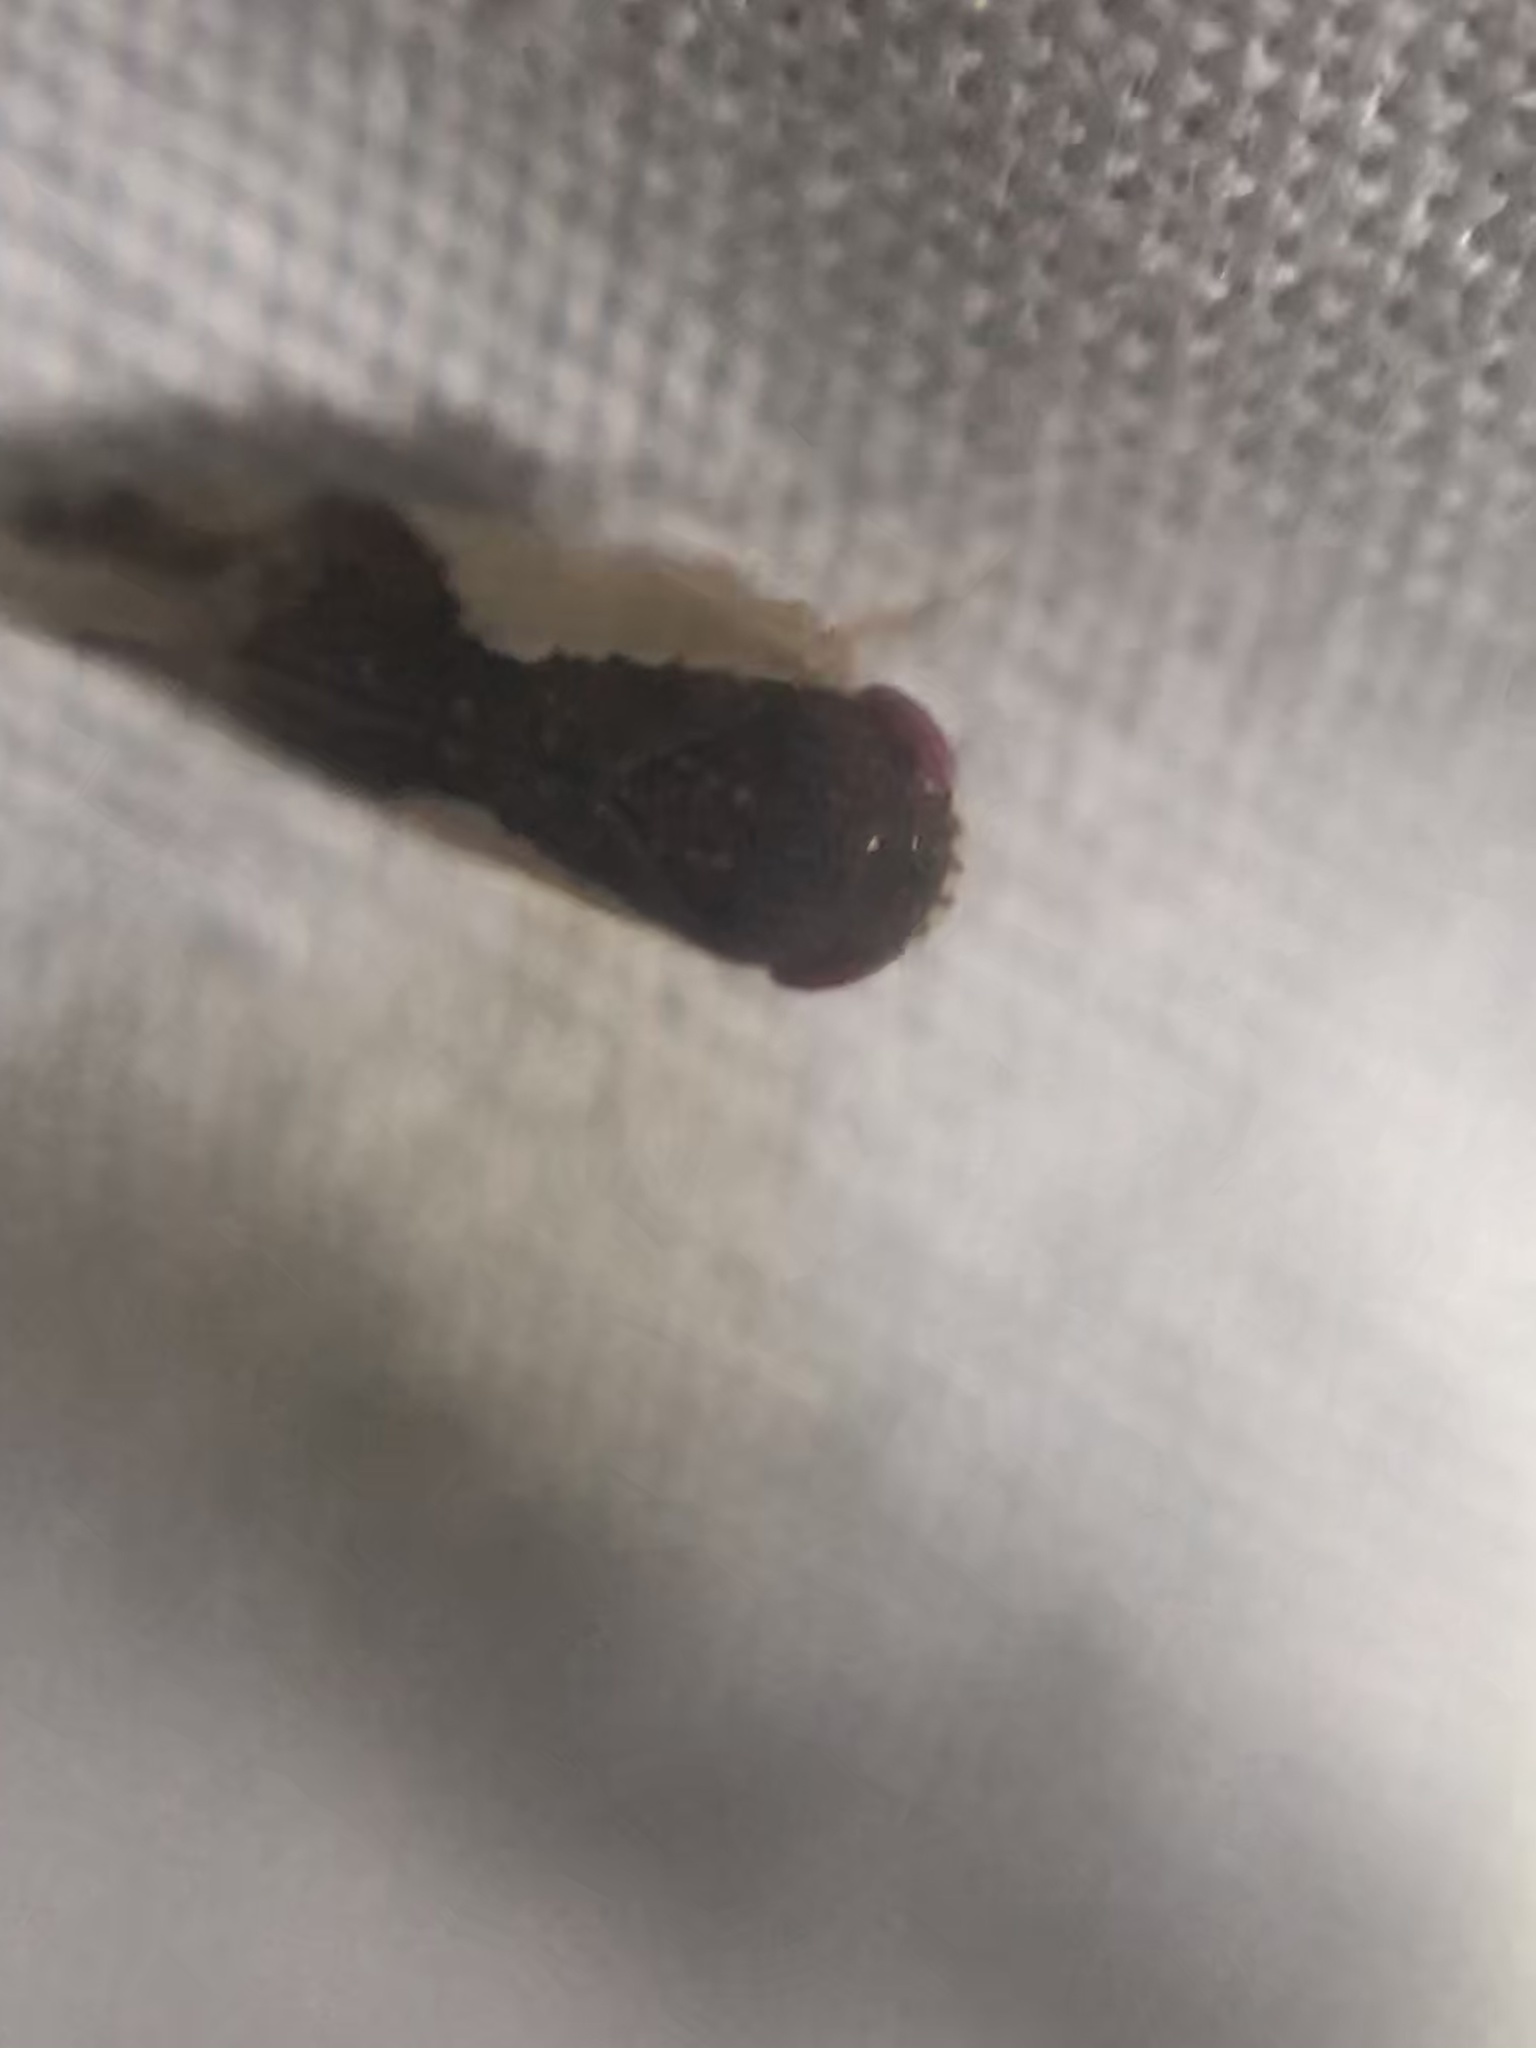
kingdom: Animalia
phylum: Arthropoda
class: Insecta
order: Hemiptera
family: Cicadellidae
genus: Norvellina
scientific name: Norvellina pulchella
